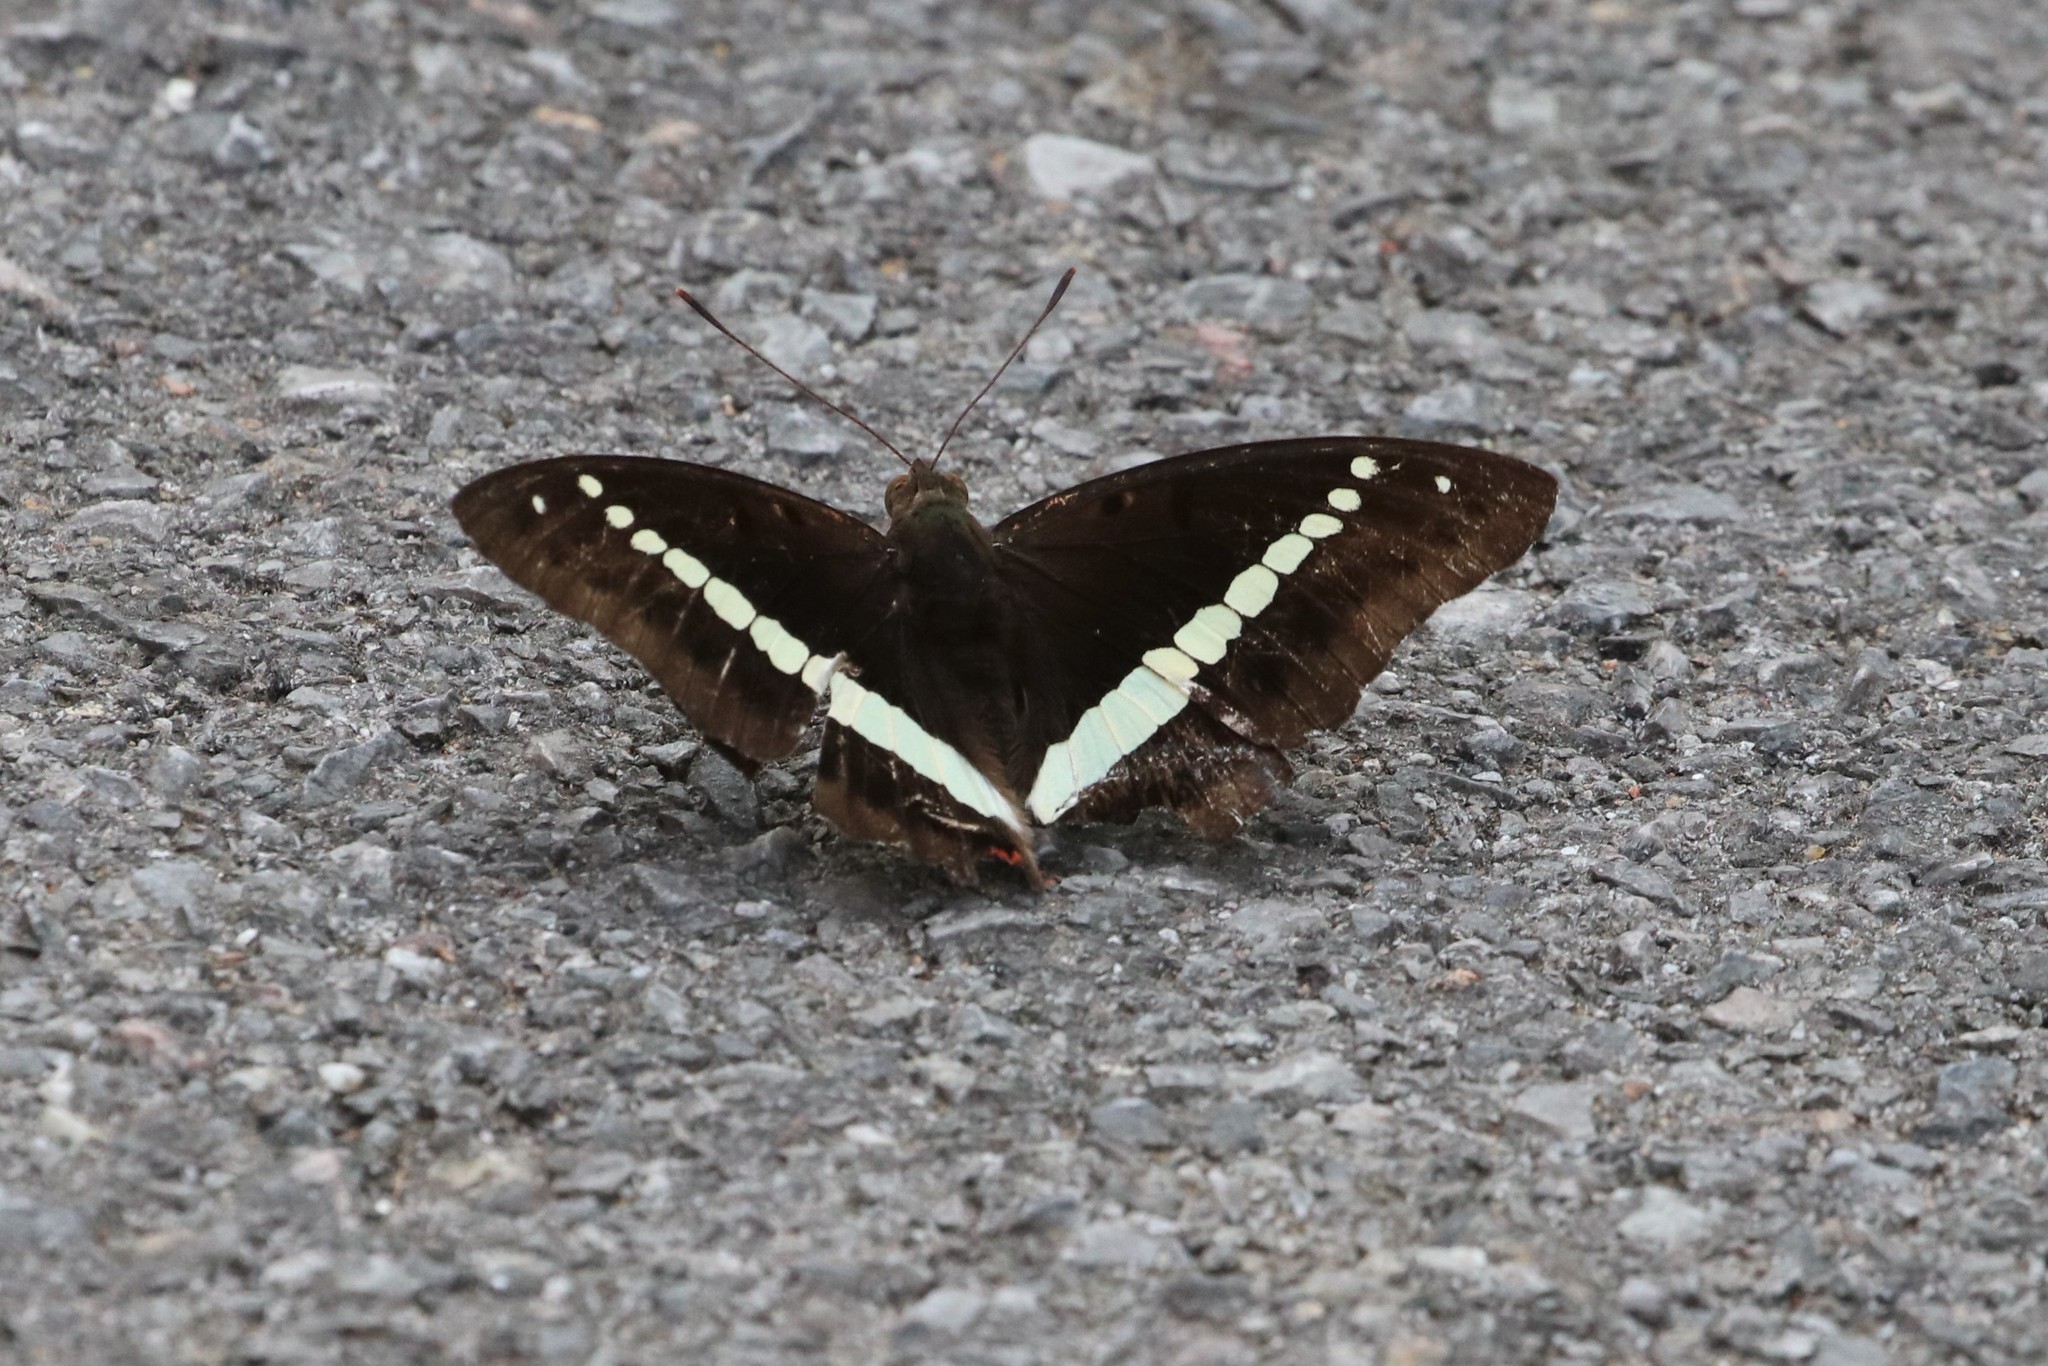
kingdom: Animalia
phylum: Arthropoda
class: Insecta
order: Lepidoptera
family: Nymphalidae
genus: Euthalia
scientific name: Euthalia recta
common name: Redtail marquis
